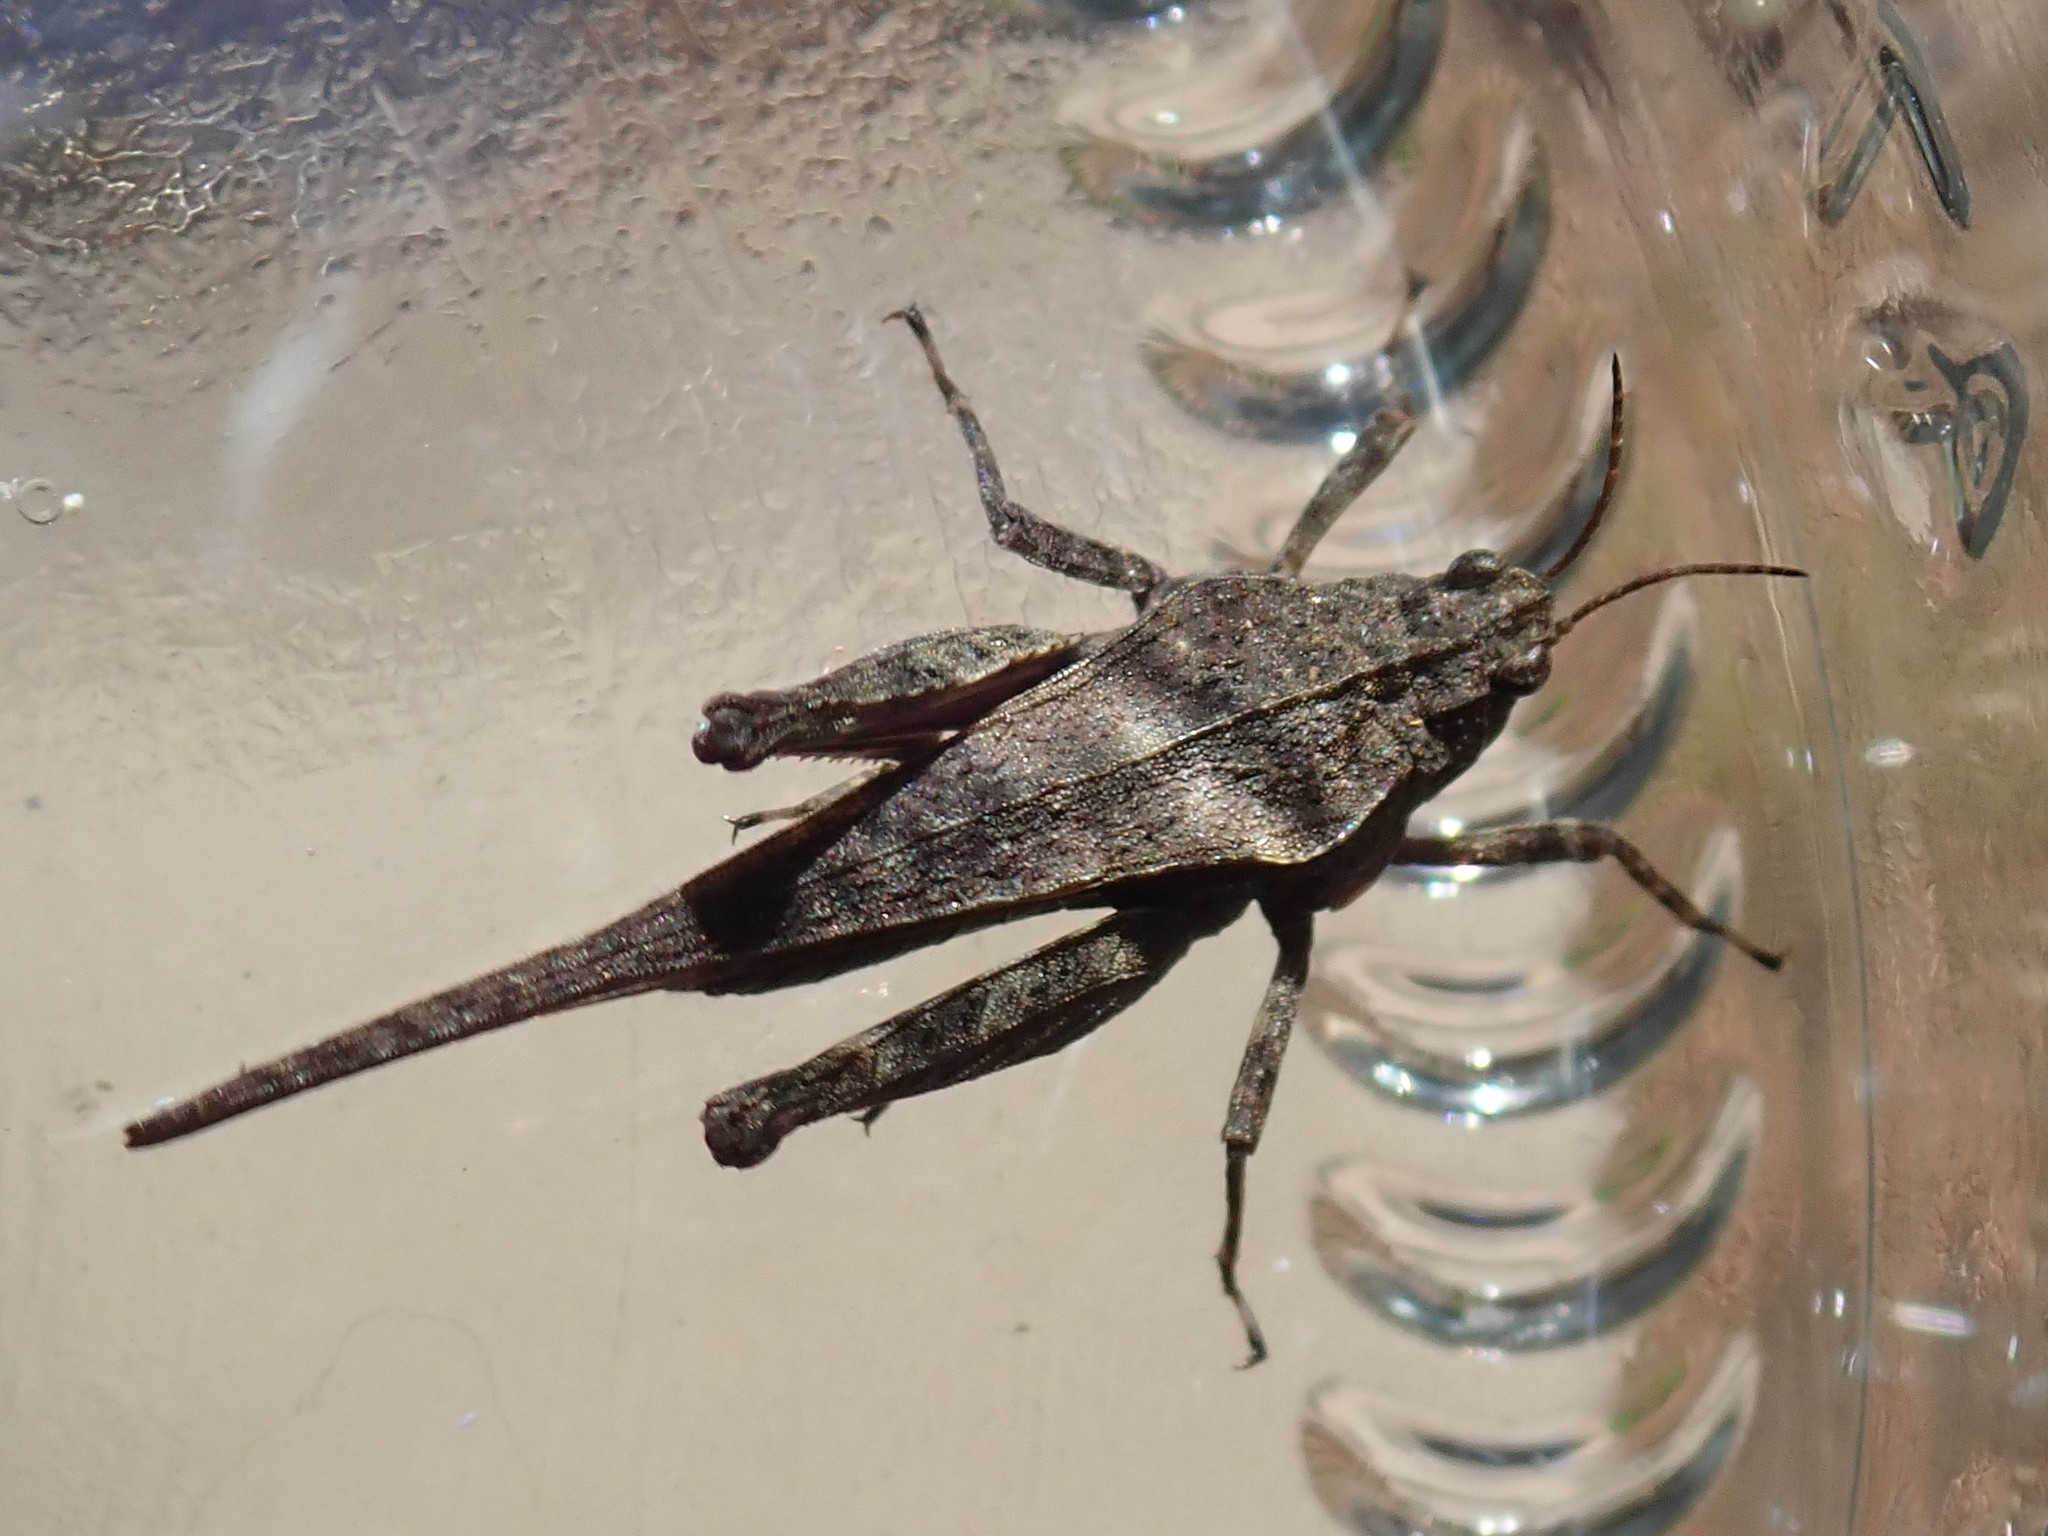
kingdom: Animalia
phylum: Arthropoda
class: Insecta
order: Orthoptera
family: Tetrigidae
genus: Tetrix
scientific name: Tetrix subulata
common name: Slender ground-hopper
